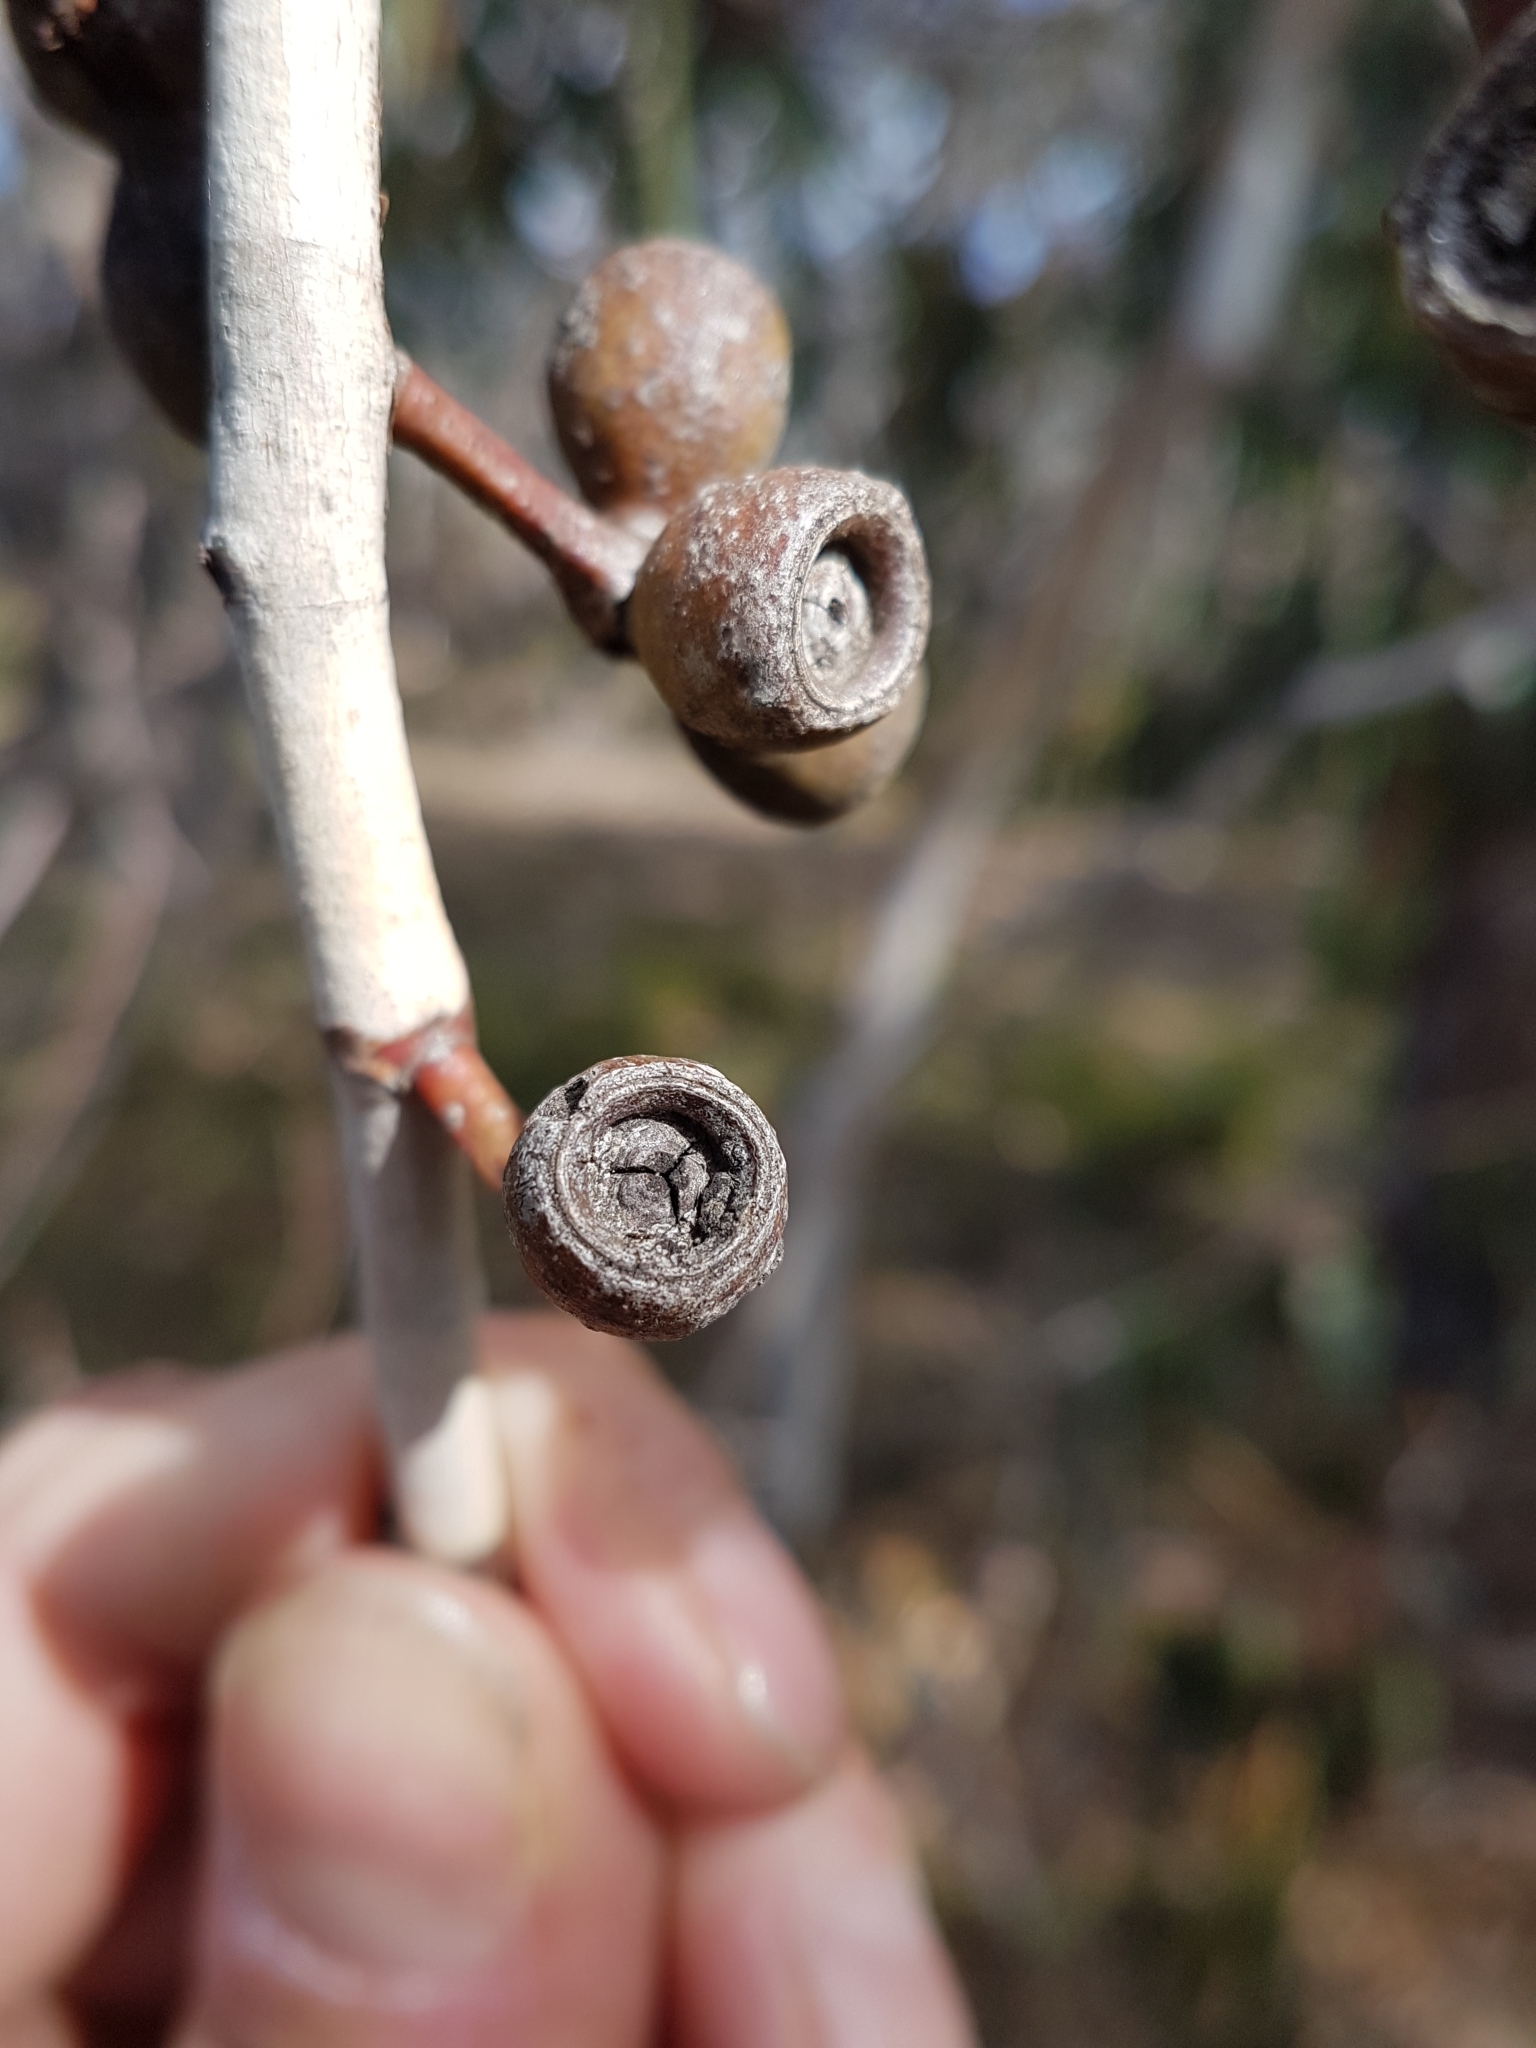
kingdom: Plantae
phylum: Tracheophyta
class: Magnoliopsida
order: Myrtales
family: Myrtaceae
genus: Eucalyptus
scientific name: Eucalyptus litoralis
